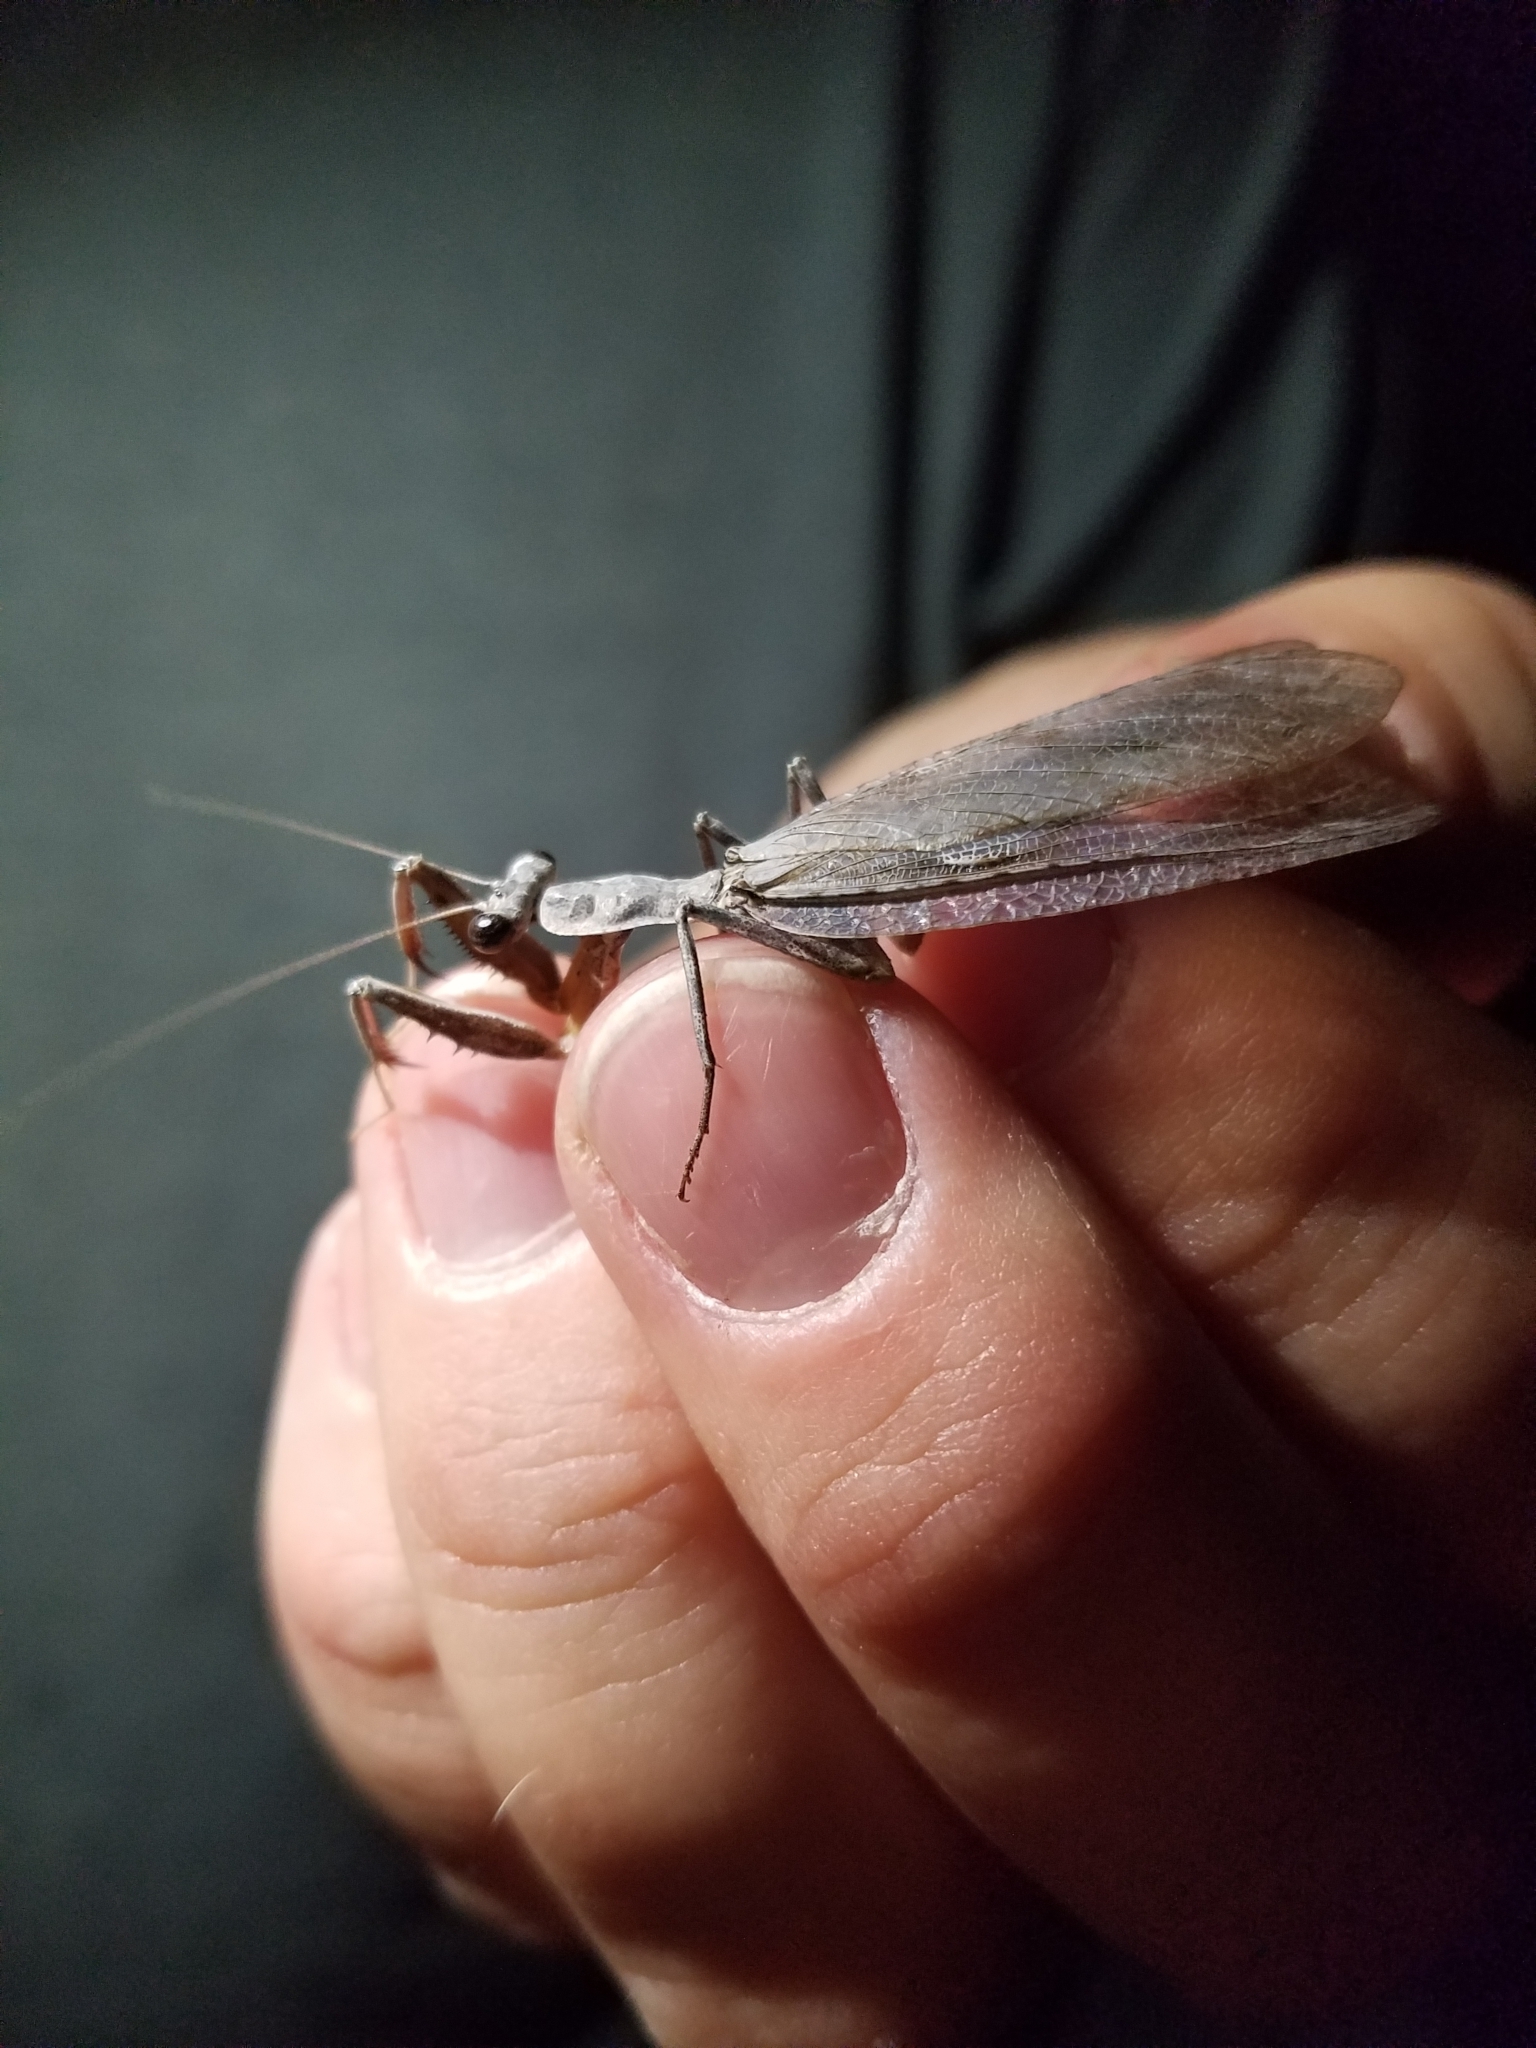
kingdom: Animalia
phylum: Arthropoda
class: Insecta
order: Mantodea
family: Epaphroditidae
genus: Gonatista
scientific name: Gonatista grisea
